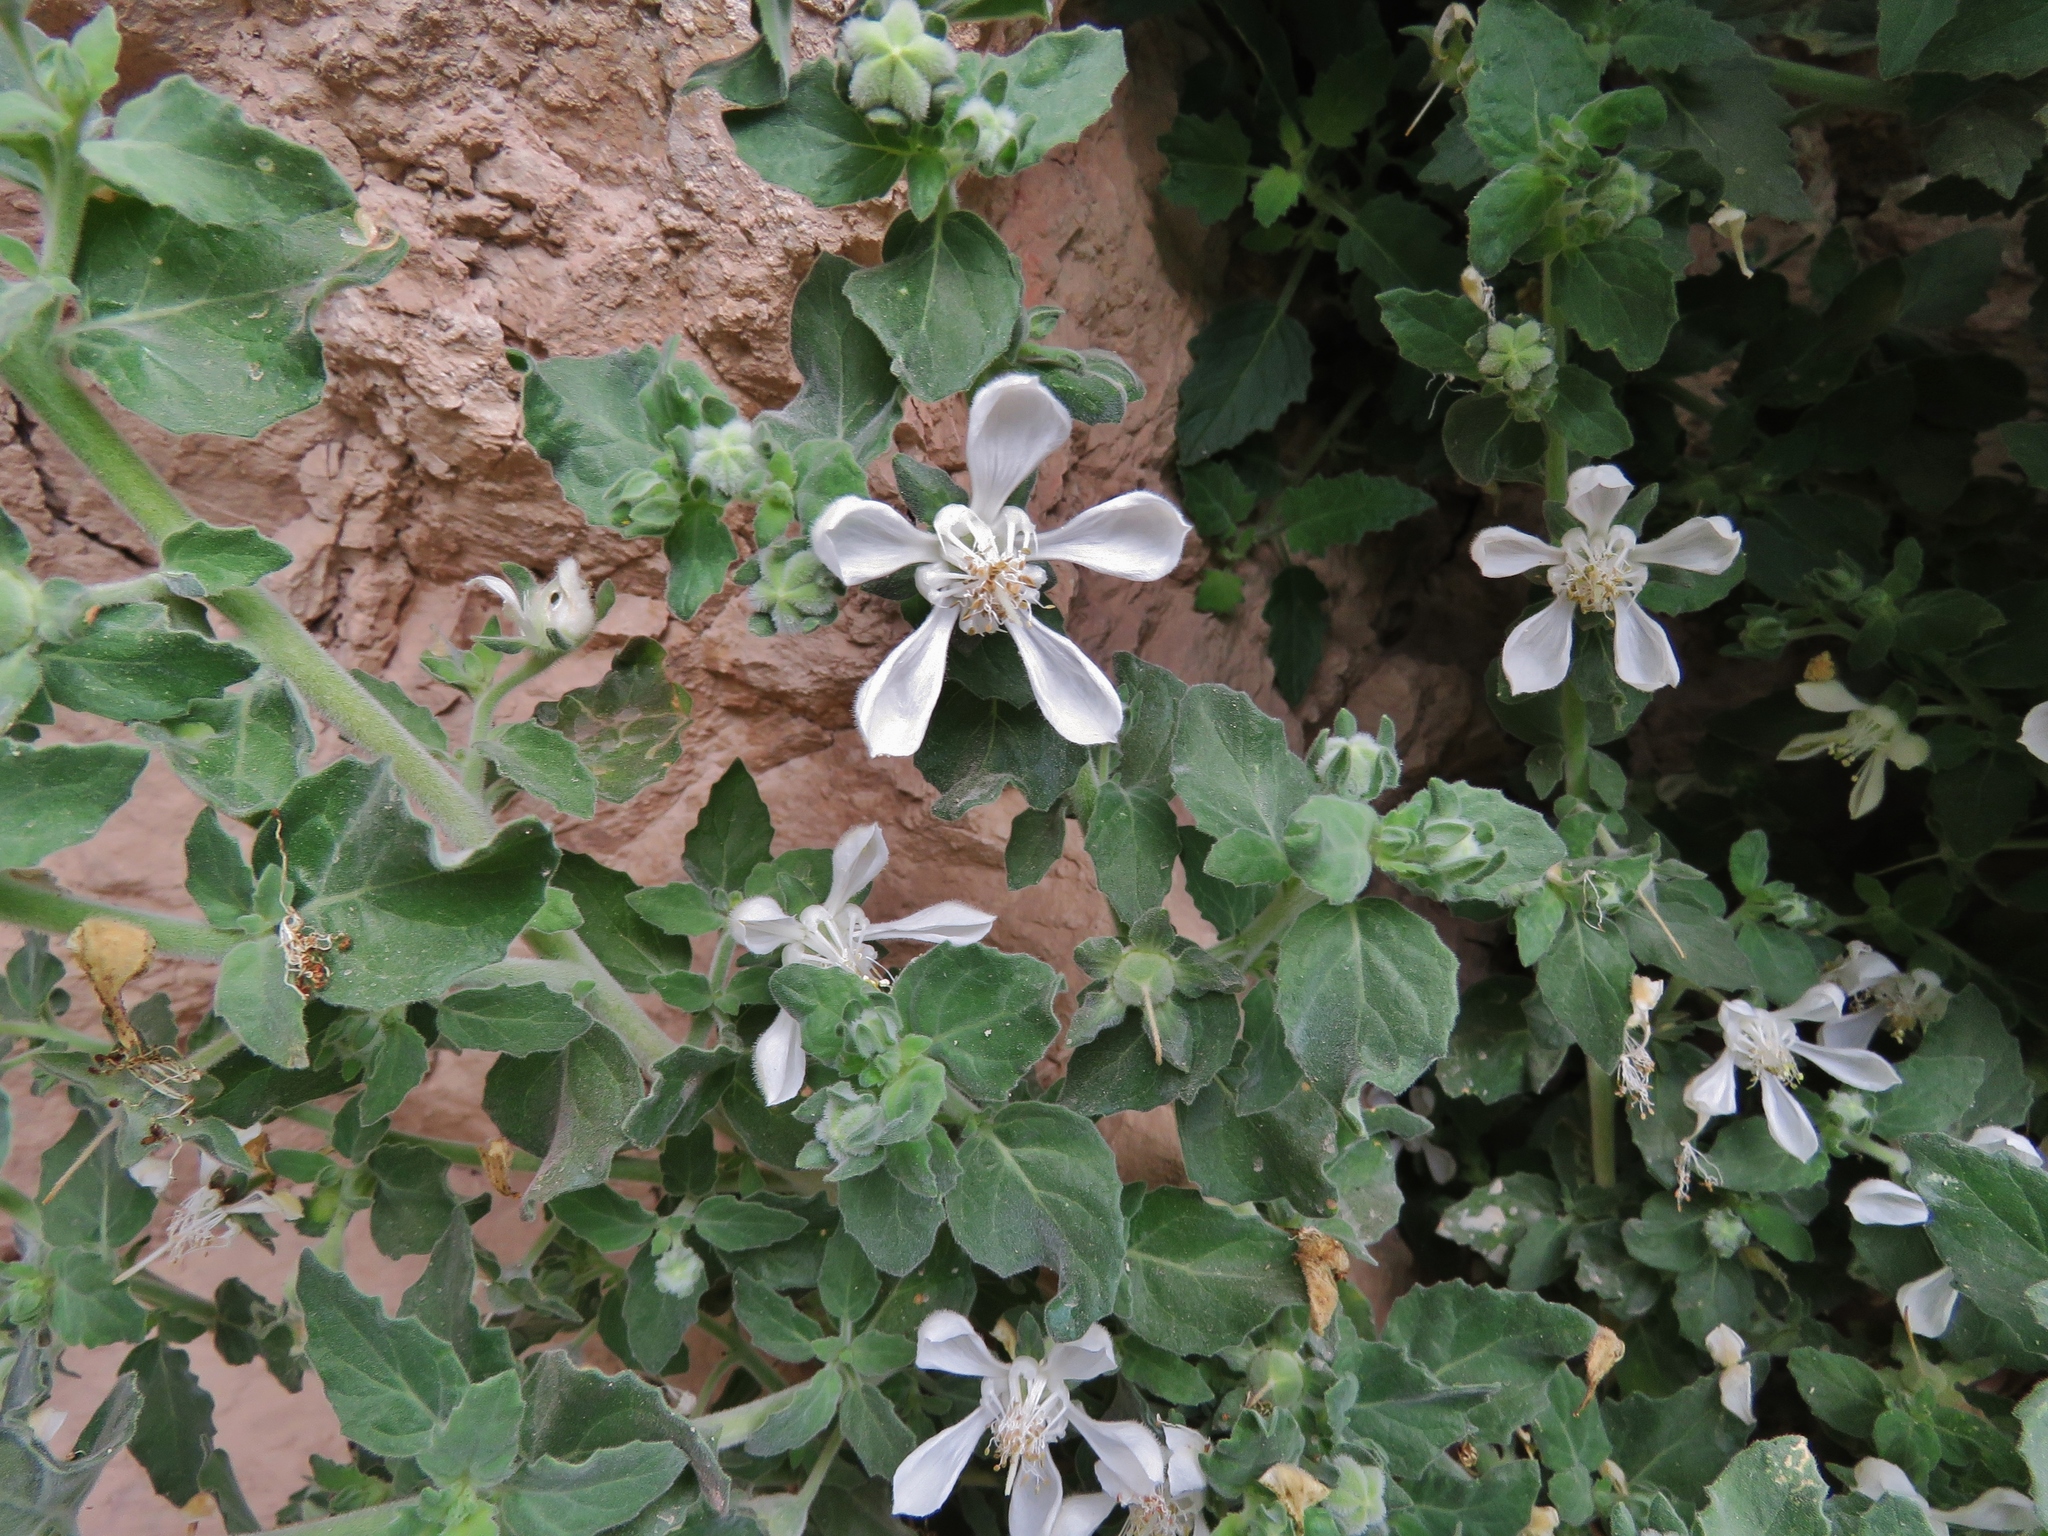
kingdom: Plantae
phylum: Tracheophyta
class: Magnoliopsida
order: Cornales
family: Loasaceae
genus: Presliophytum
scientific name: Presliophytum incanum
